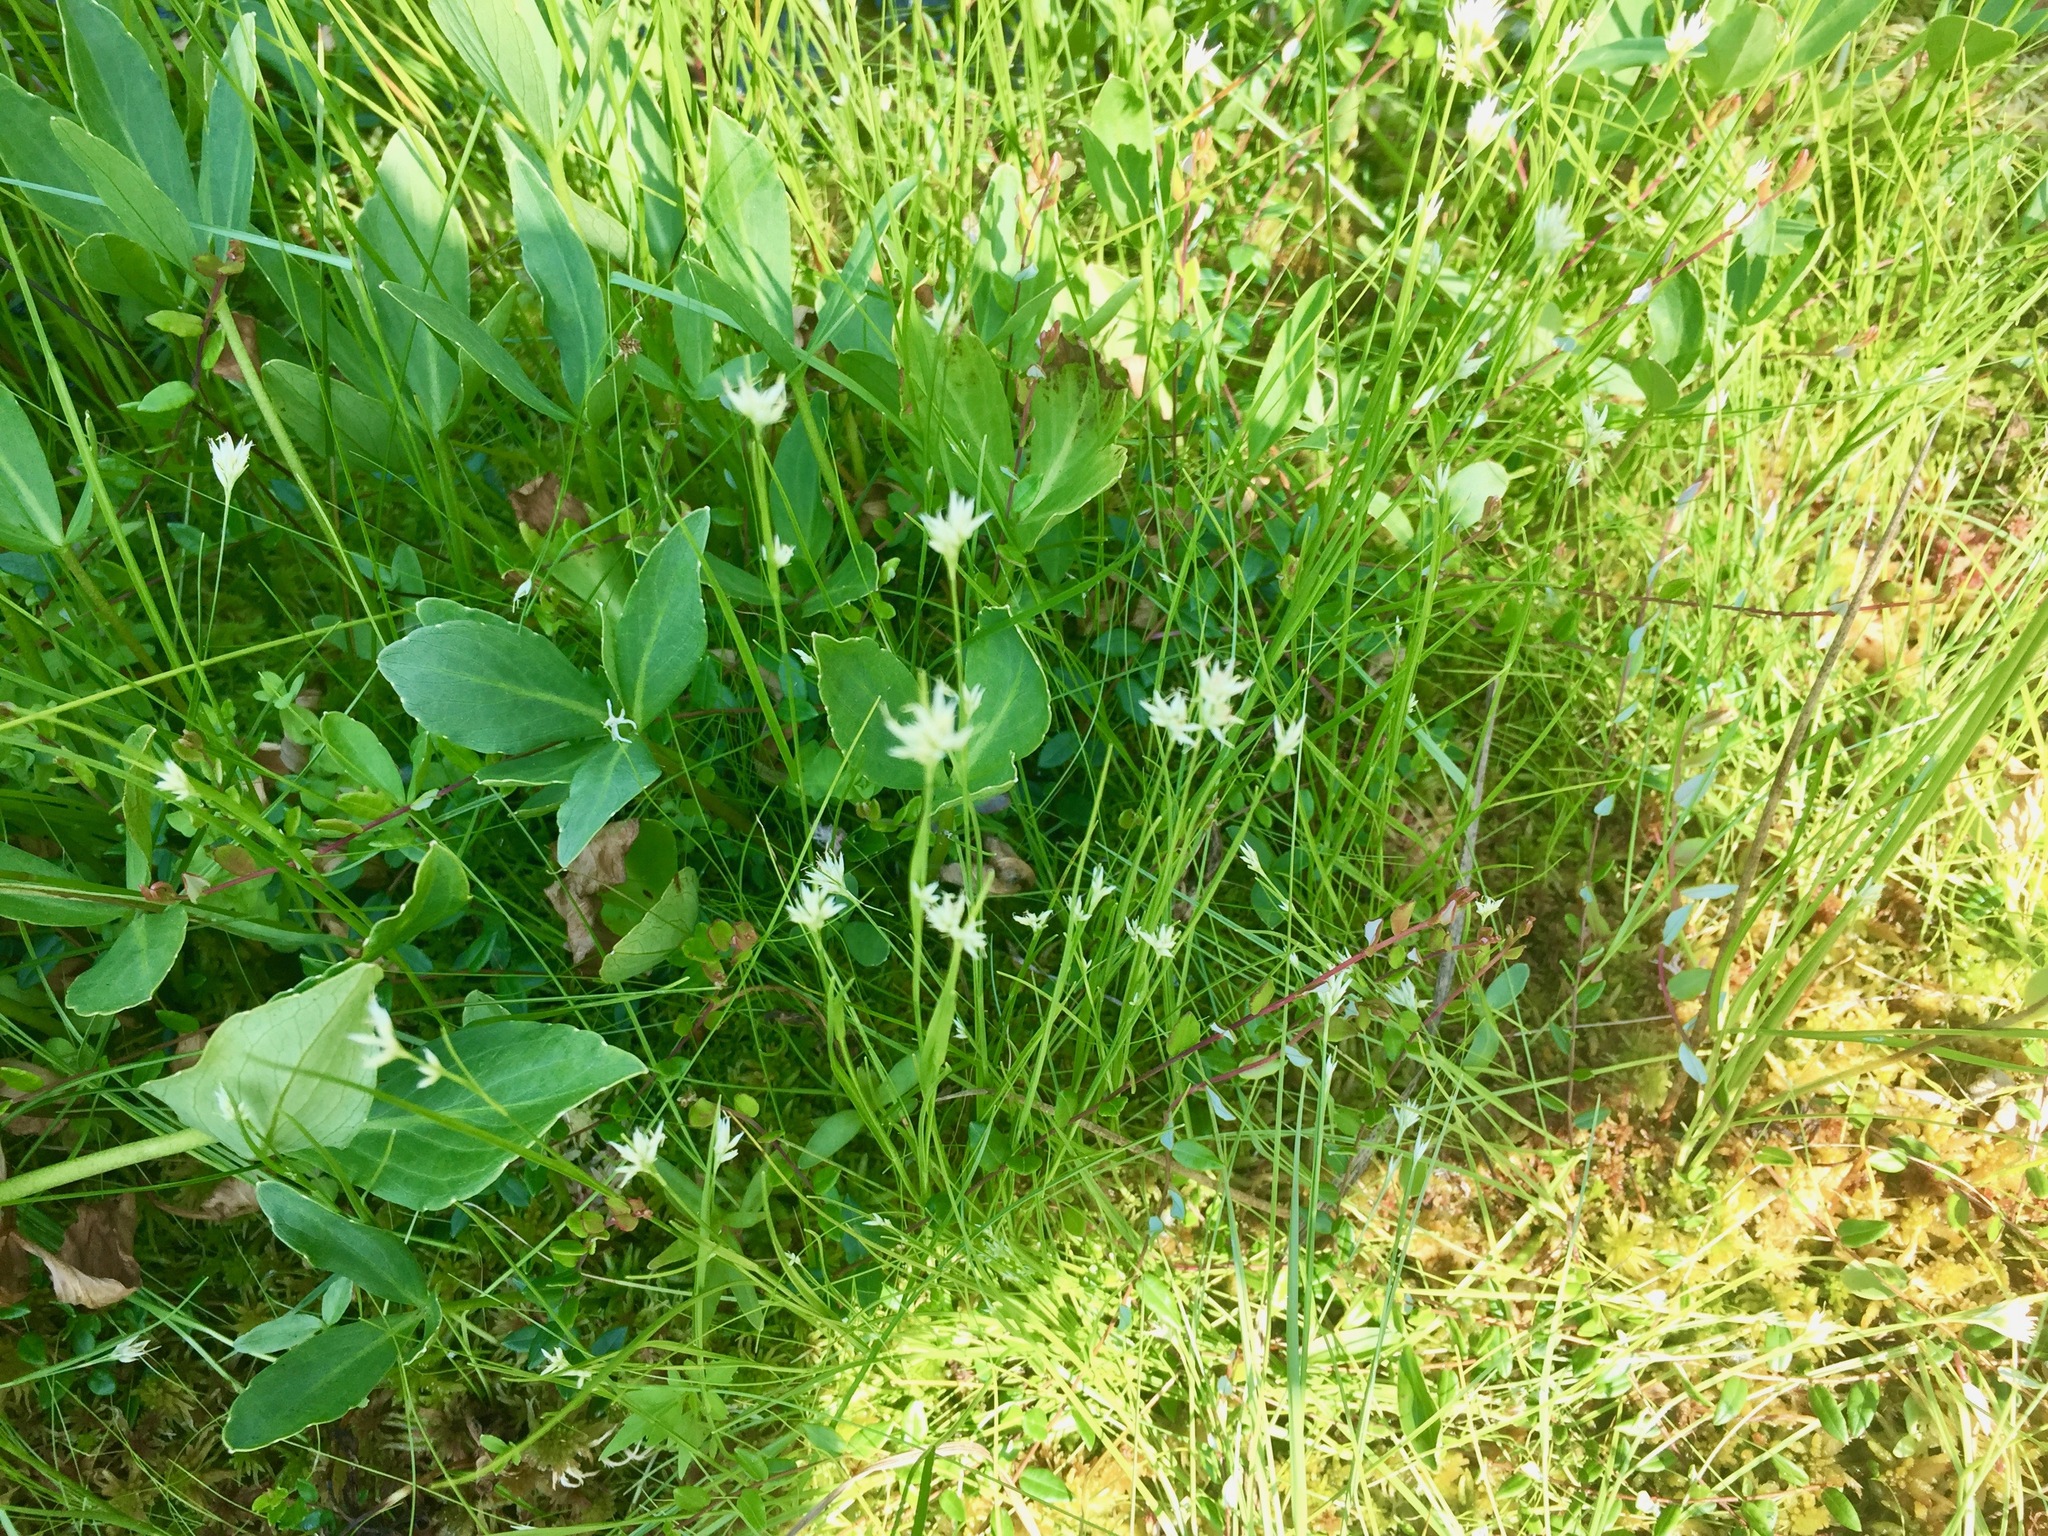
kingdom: Plantae
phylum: Tracheophyta
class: Liliopsida
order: Poales
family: Cyperaceae
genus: Rhynchospora
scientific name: Rhynchospora alba
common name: White beak-sedge
